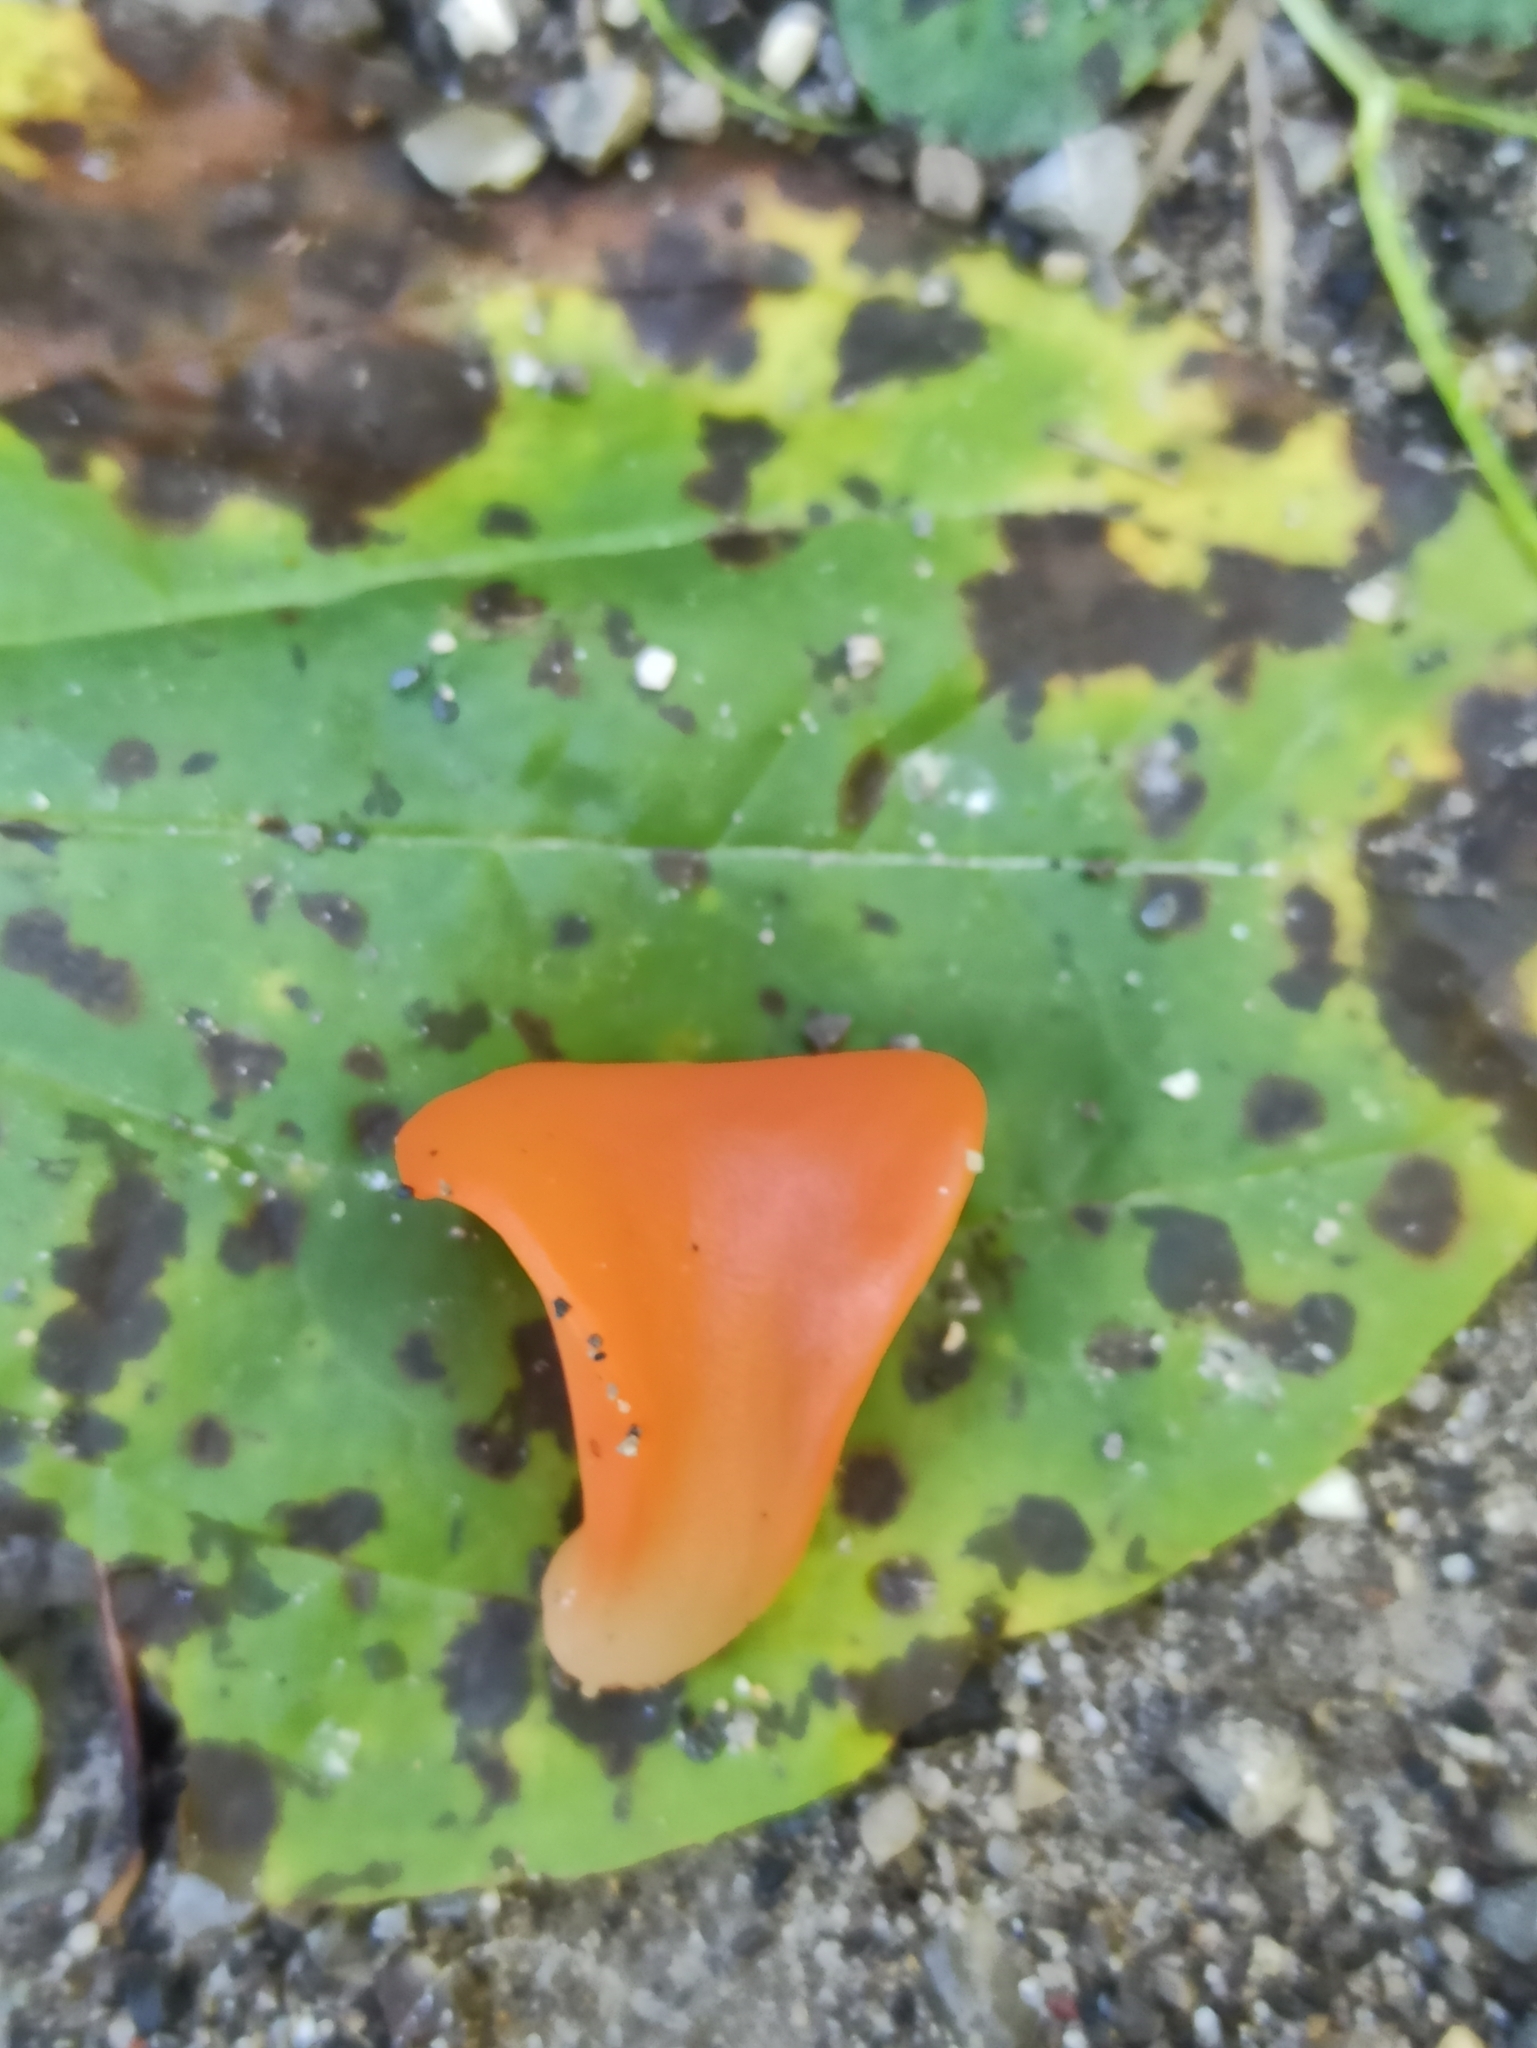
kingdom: Fungi
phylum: Basidiomycota
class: Agaricomycetes
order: Auriculariales
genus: Guepinia
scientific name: Guepinia helvelloides
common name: Salmon salad
